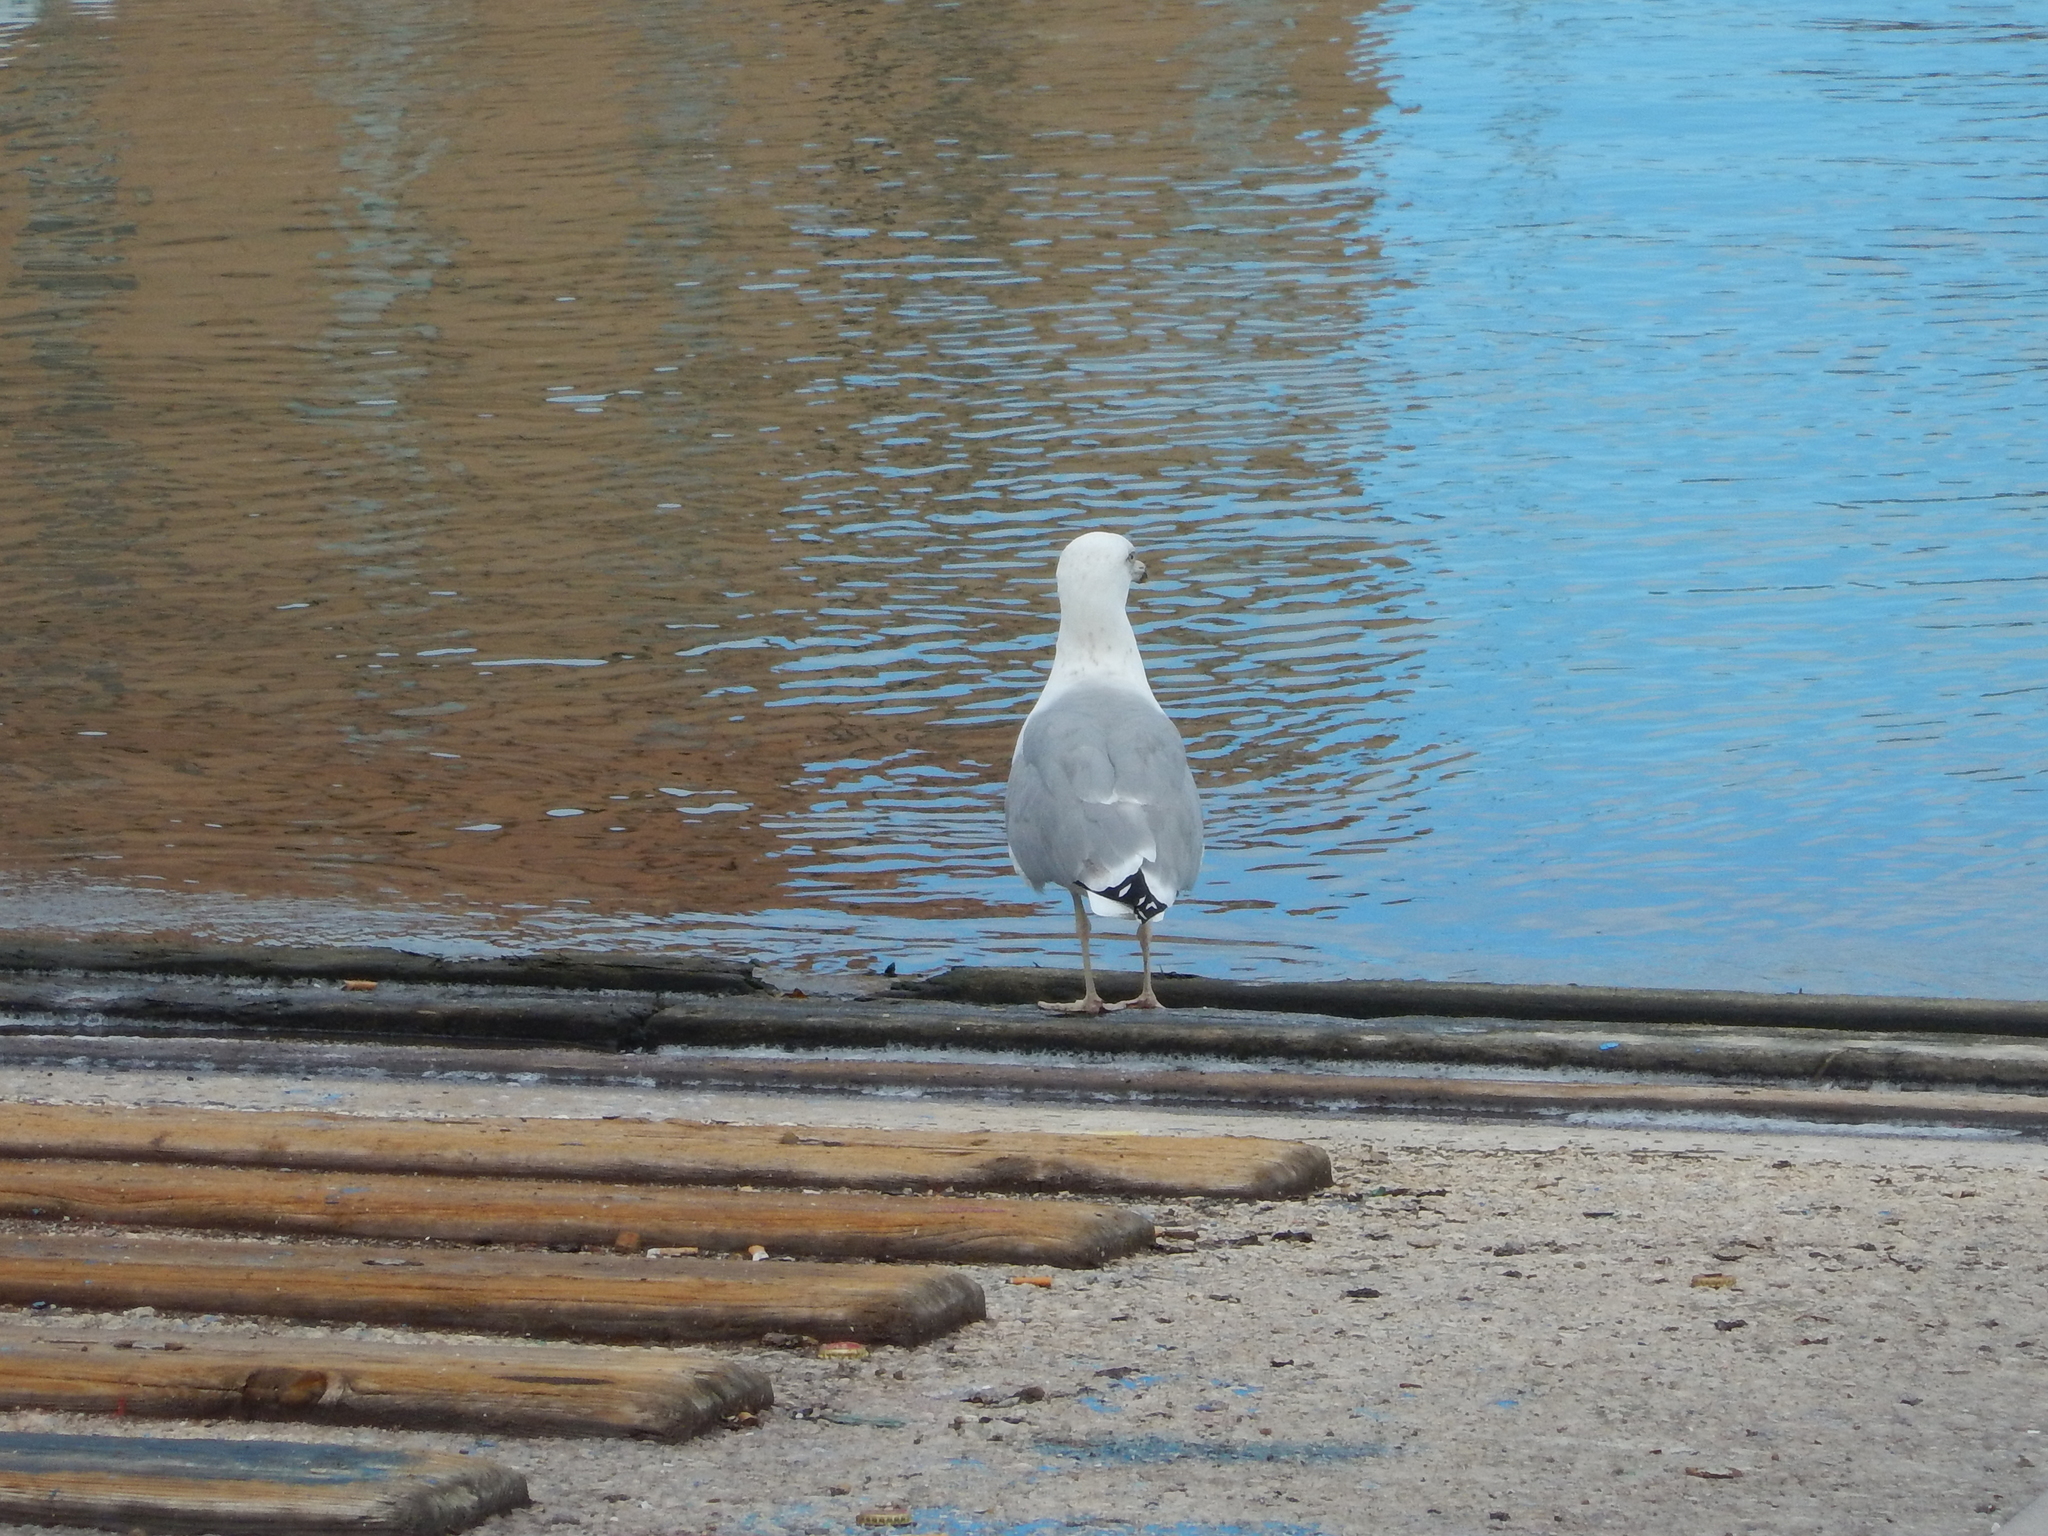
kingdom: Animalia
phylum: Chordata
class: Aves
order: Charadriiformes
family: Laridae
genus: Larus
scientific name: Larus michahellis
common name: Yellow-legged gull
